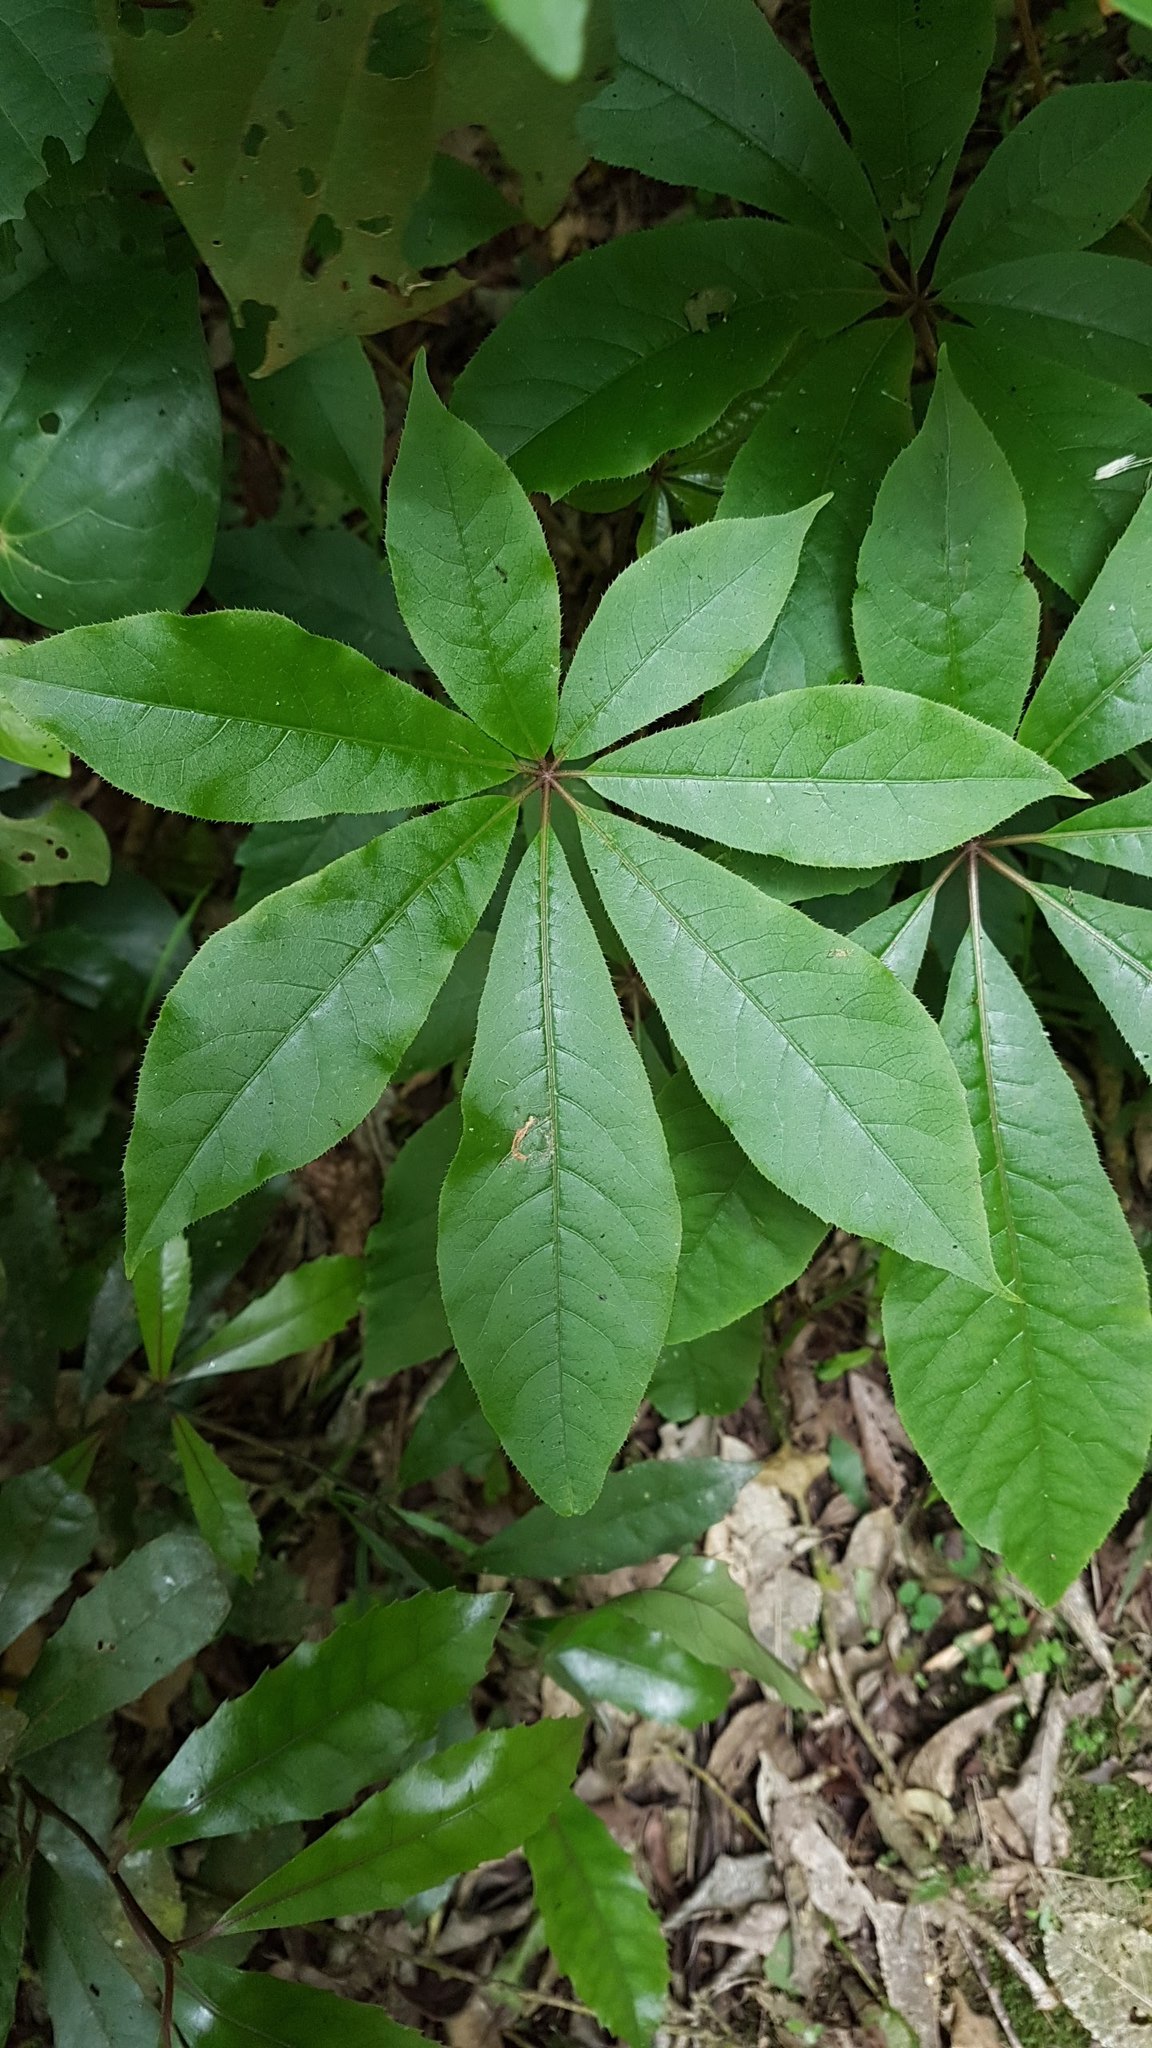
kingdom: Plantae
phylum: Tracheophyta
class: Magnoliopsida
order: Apiales
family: Araliaceae
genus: Schefflera
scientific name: Schefflera digitata
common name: Pate
